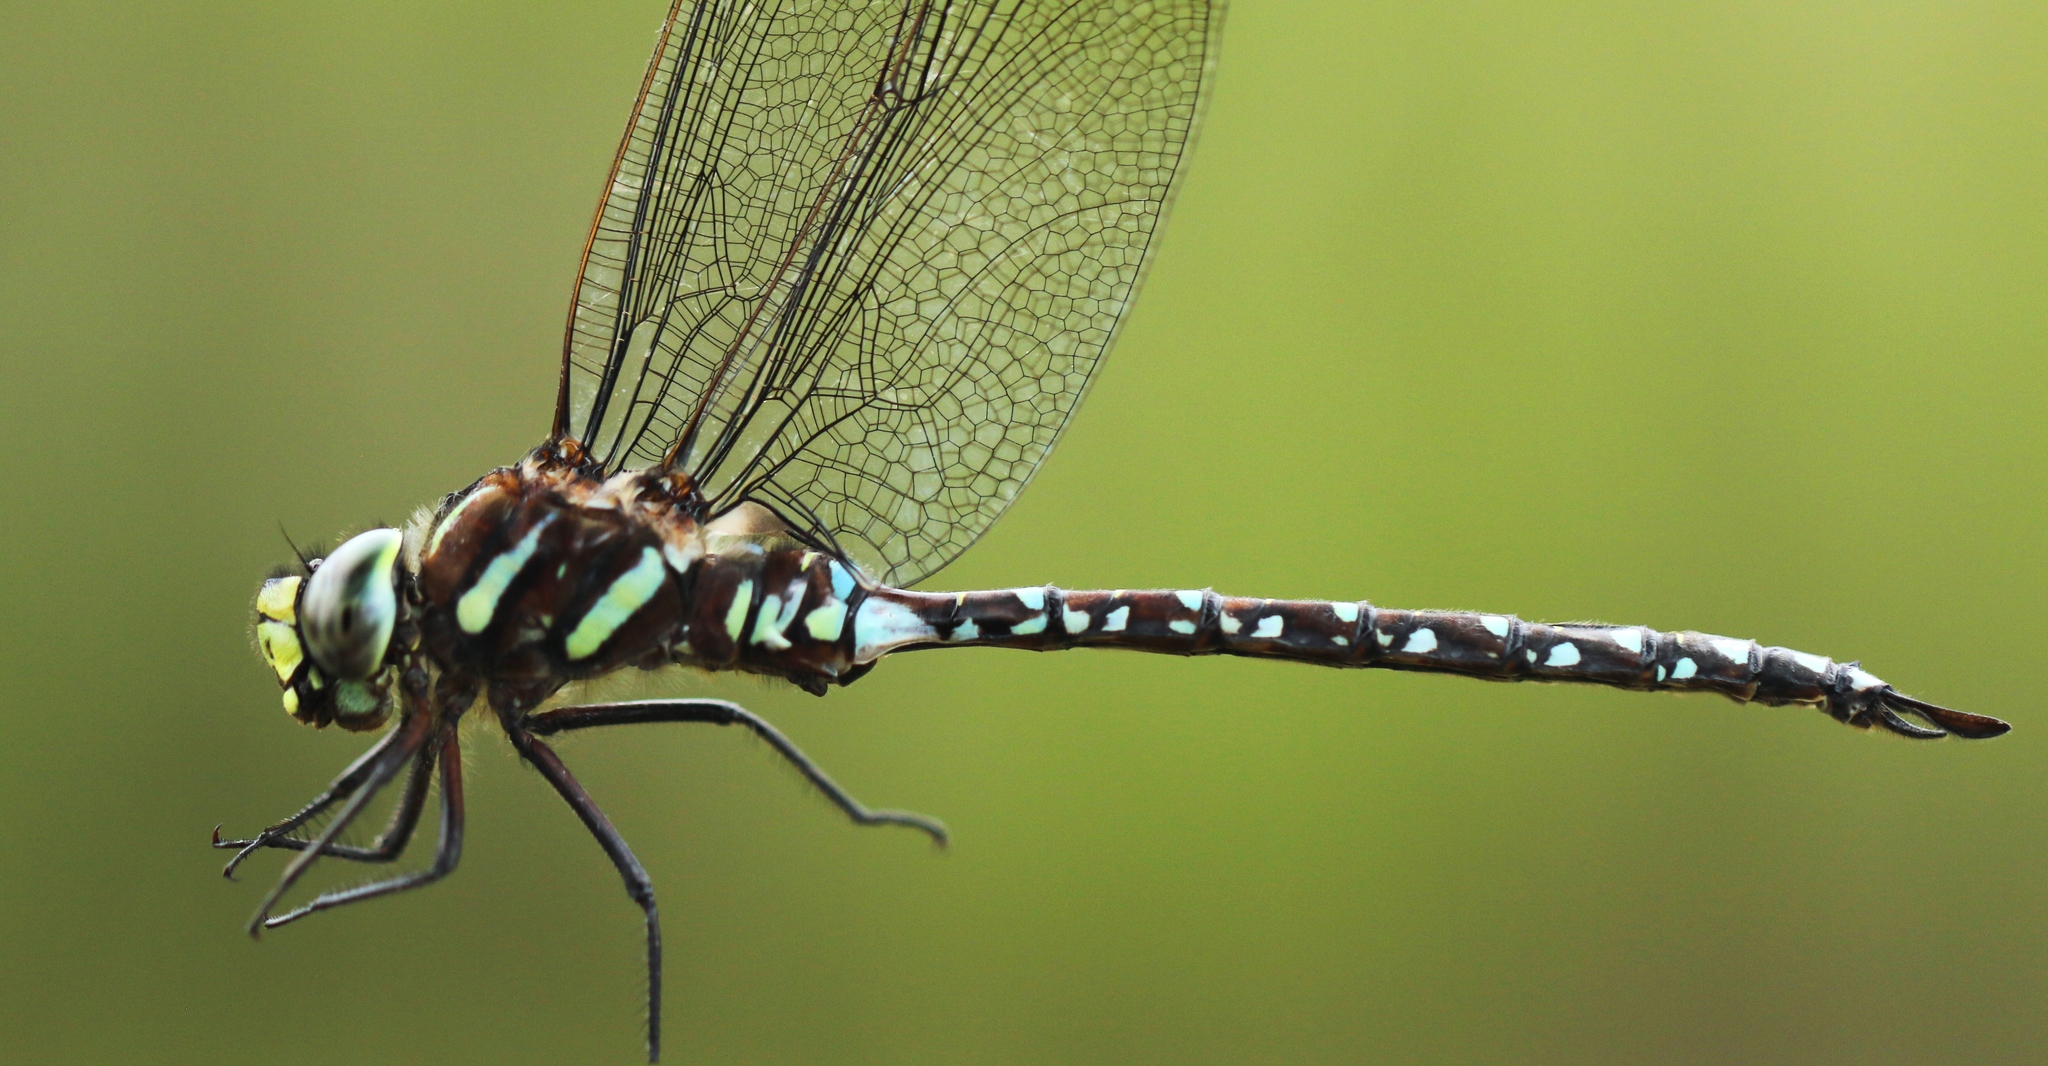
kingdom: Animalia
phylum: Arthropoda
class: Insecta
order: Odonata
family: Aeshnidae
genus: Aeshna
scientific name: Aeshna juncea
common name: Moorland hawker
